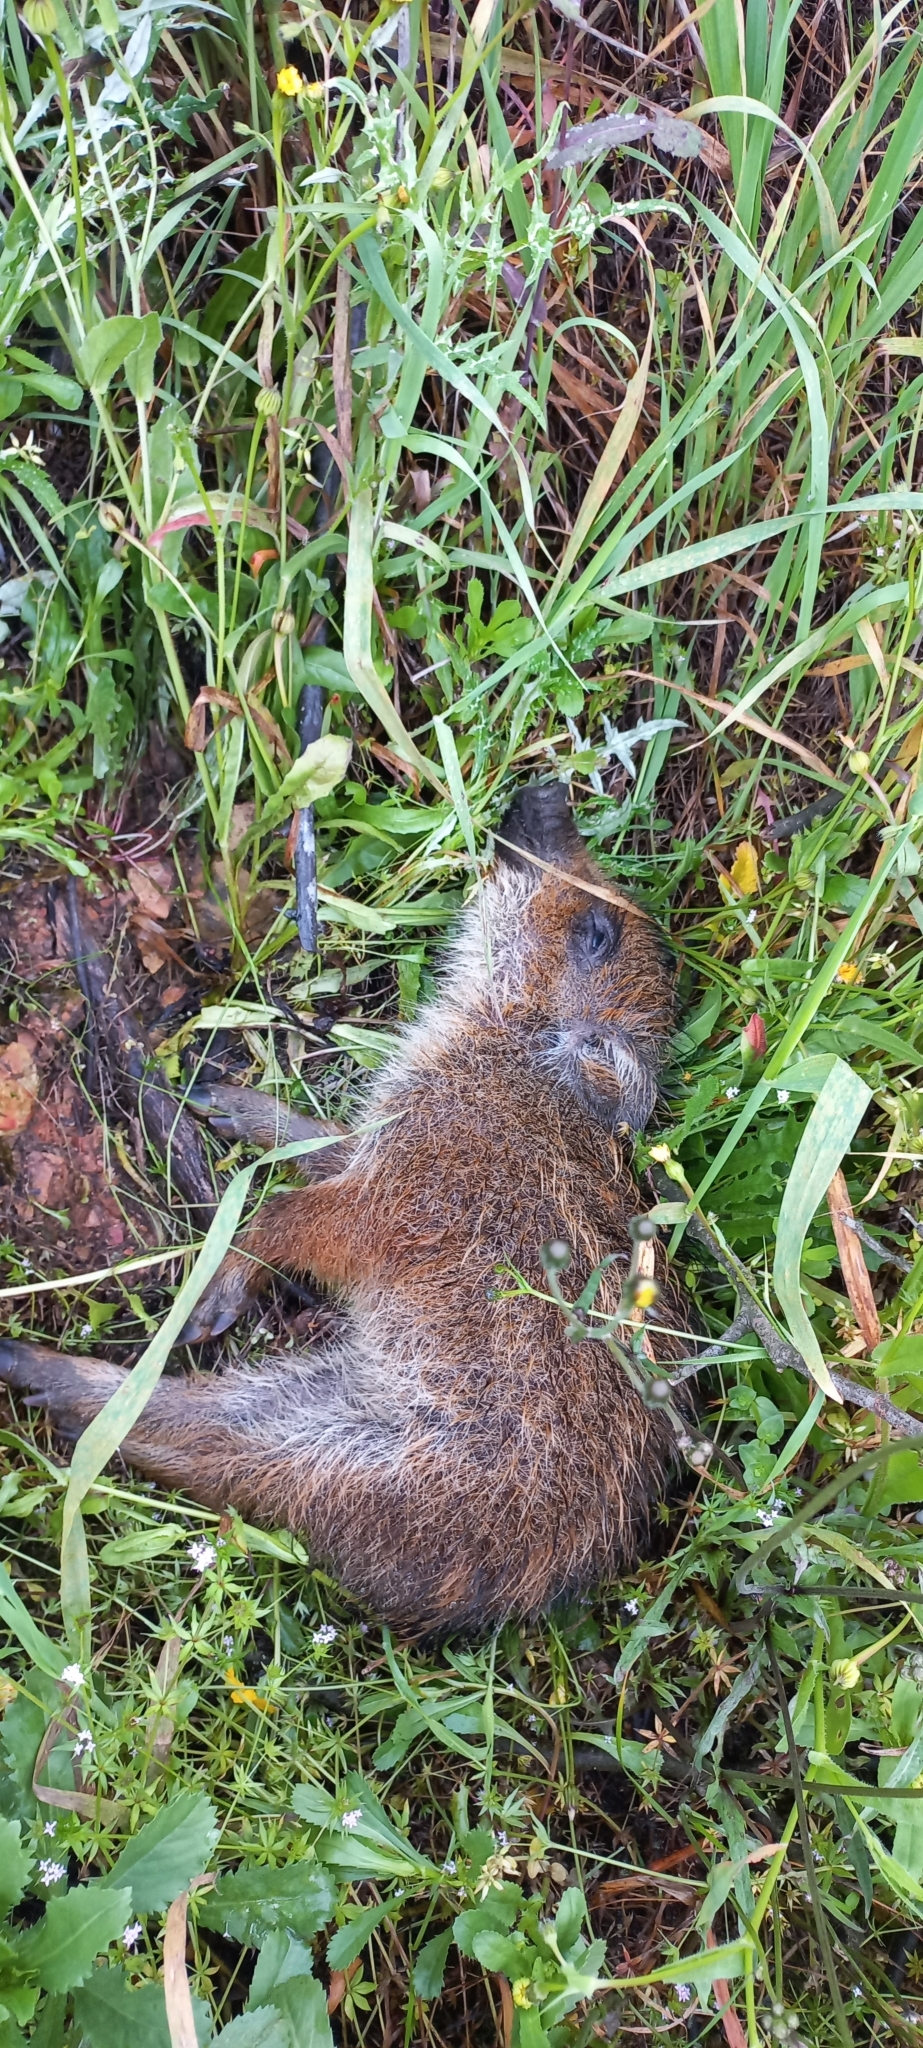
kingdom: Animalia
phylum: Chordata
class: Mammalia
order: Artiodactyla
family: Suidae
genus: Sus
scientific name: Sus scrofa
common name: Wild boar
